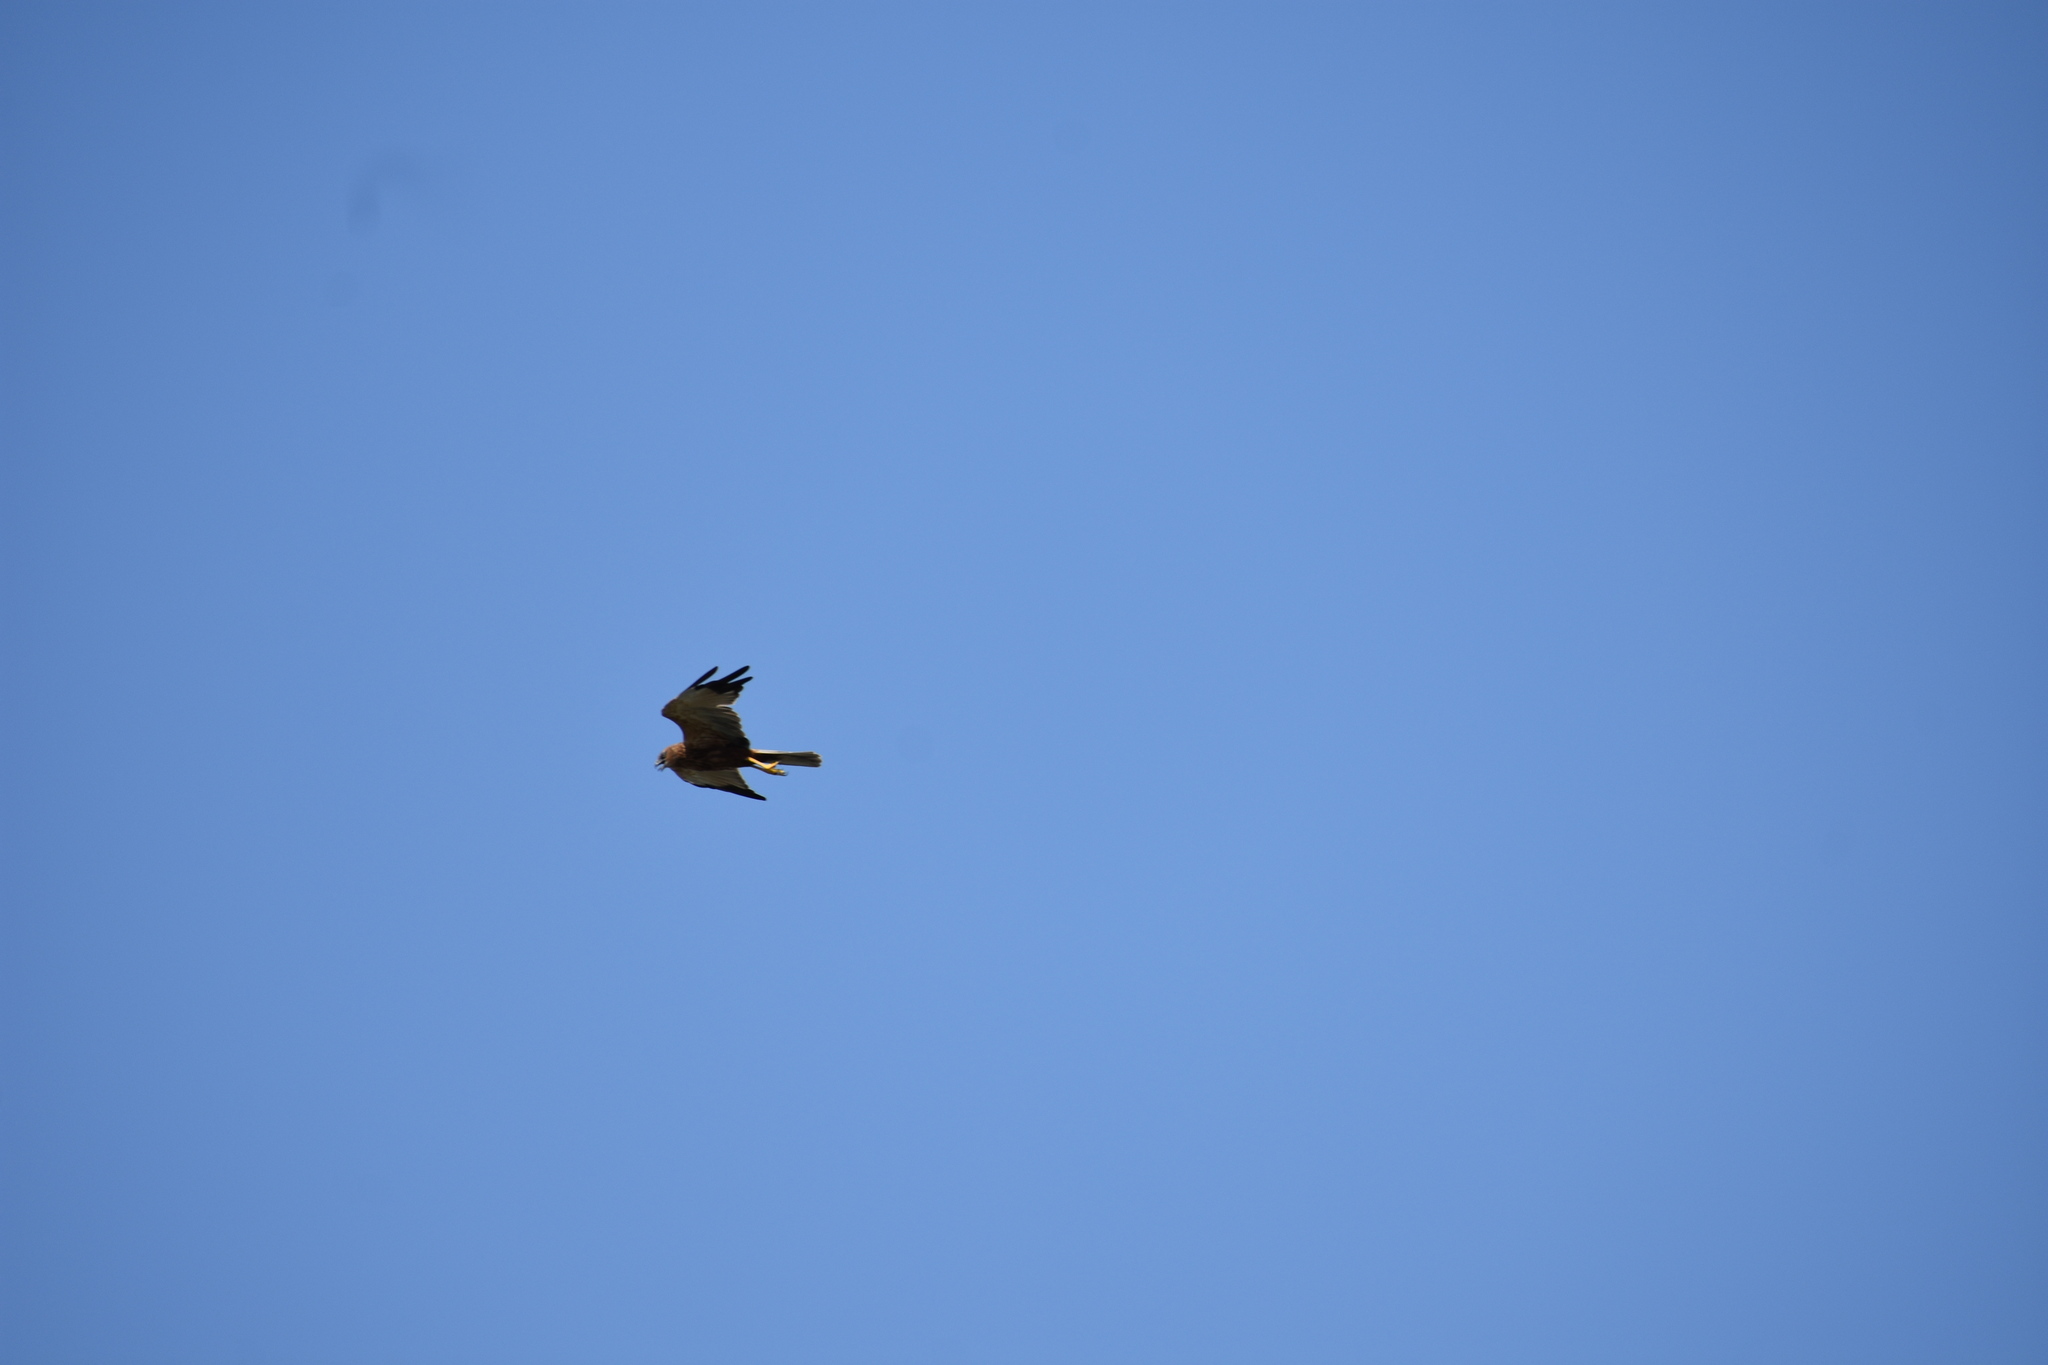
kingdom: Animalia
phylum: Chordata
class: Aves
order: Accipitriformes
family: Accipitridae
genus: Circus
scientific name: Circus aeruginosus
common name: Western marsh harrier
